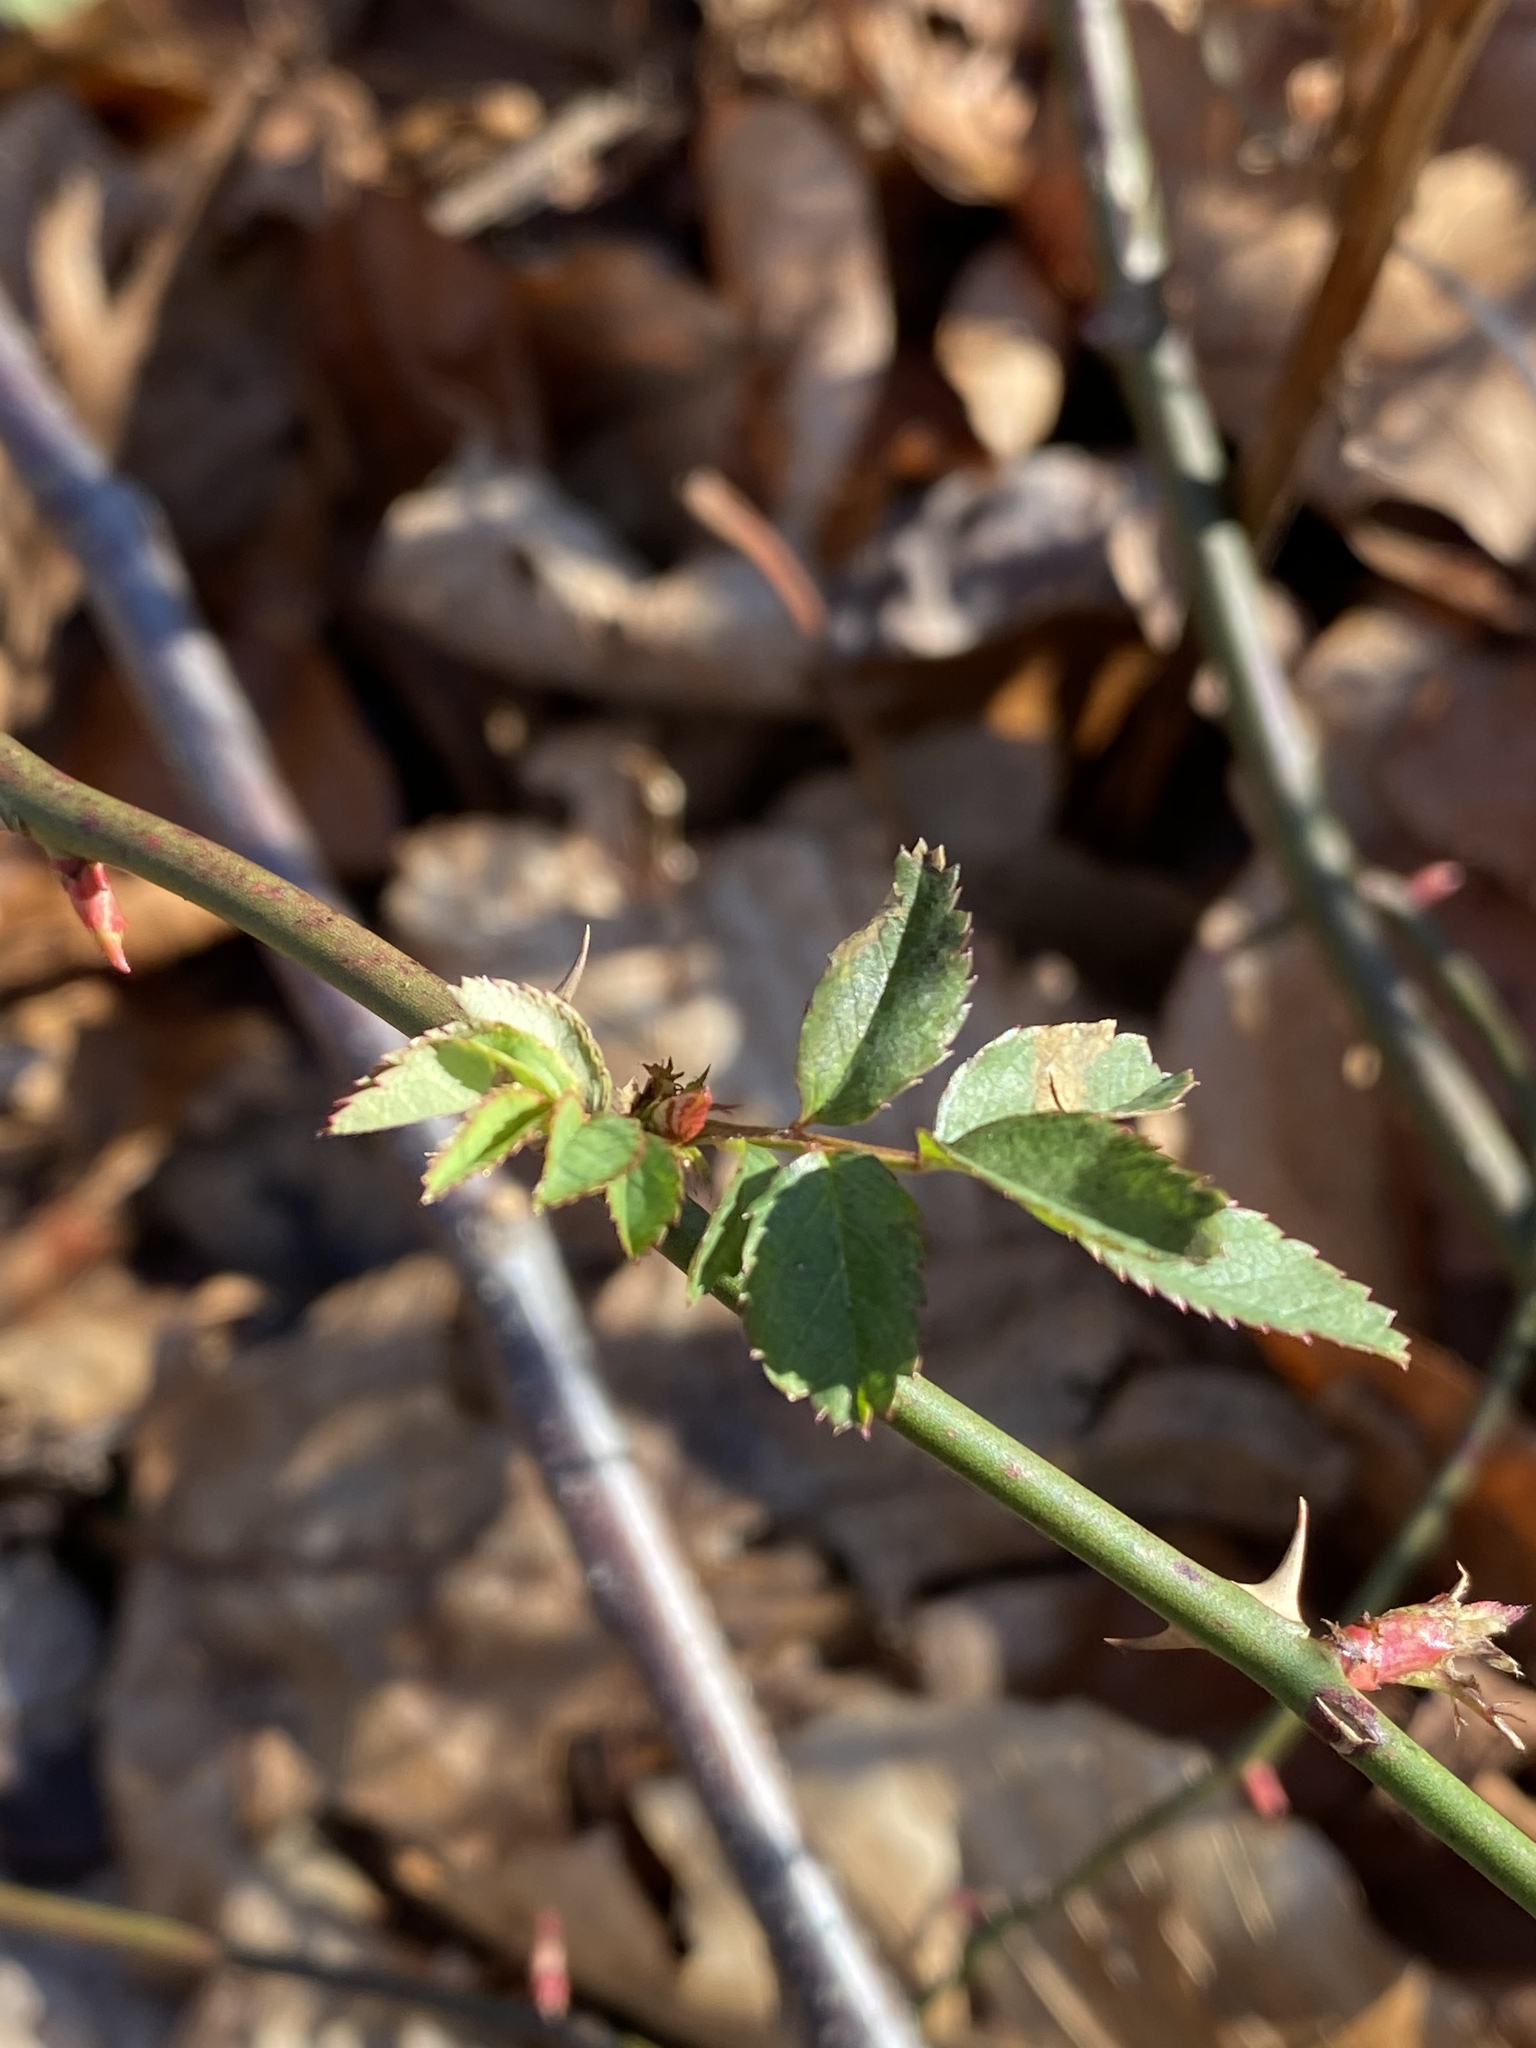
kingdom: Plantae
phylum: Tracheophyta
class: Magnoliopsida
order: Rosales
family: Rosaceae
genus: Rosa
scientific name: Rosa multiflora
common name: Multiflora rose
